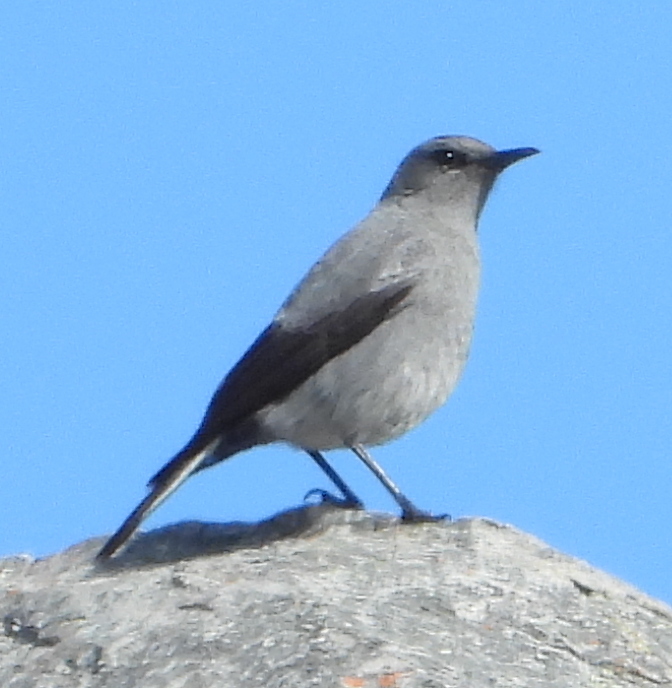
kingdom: Animalia
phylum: Chordata
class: Aves
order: Passeriformes
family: Muscicapidae
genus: Oenanthe
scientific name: Oenanthe monticola
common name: Mountain wheatear
